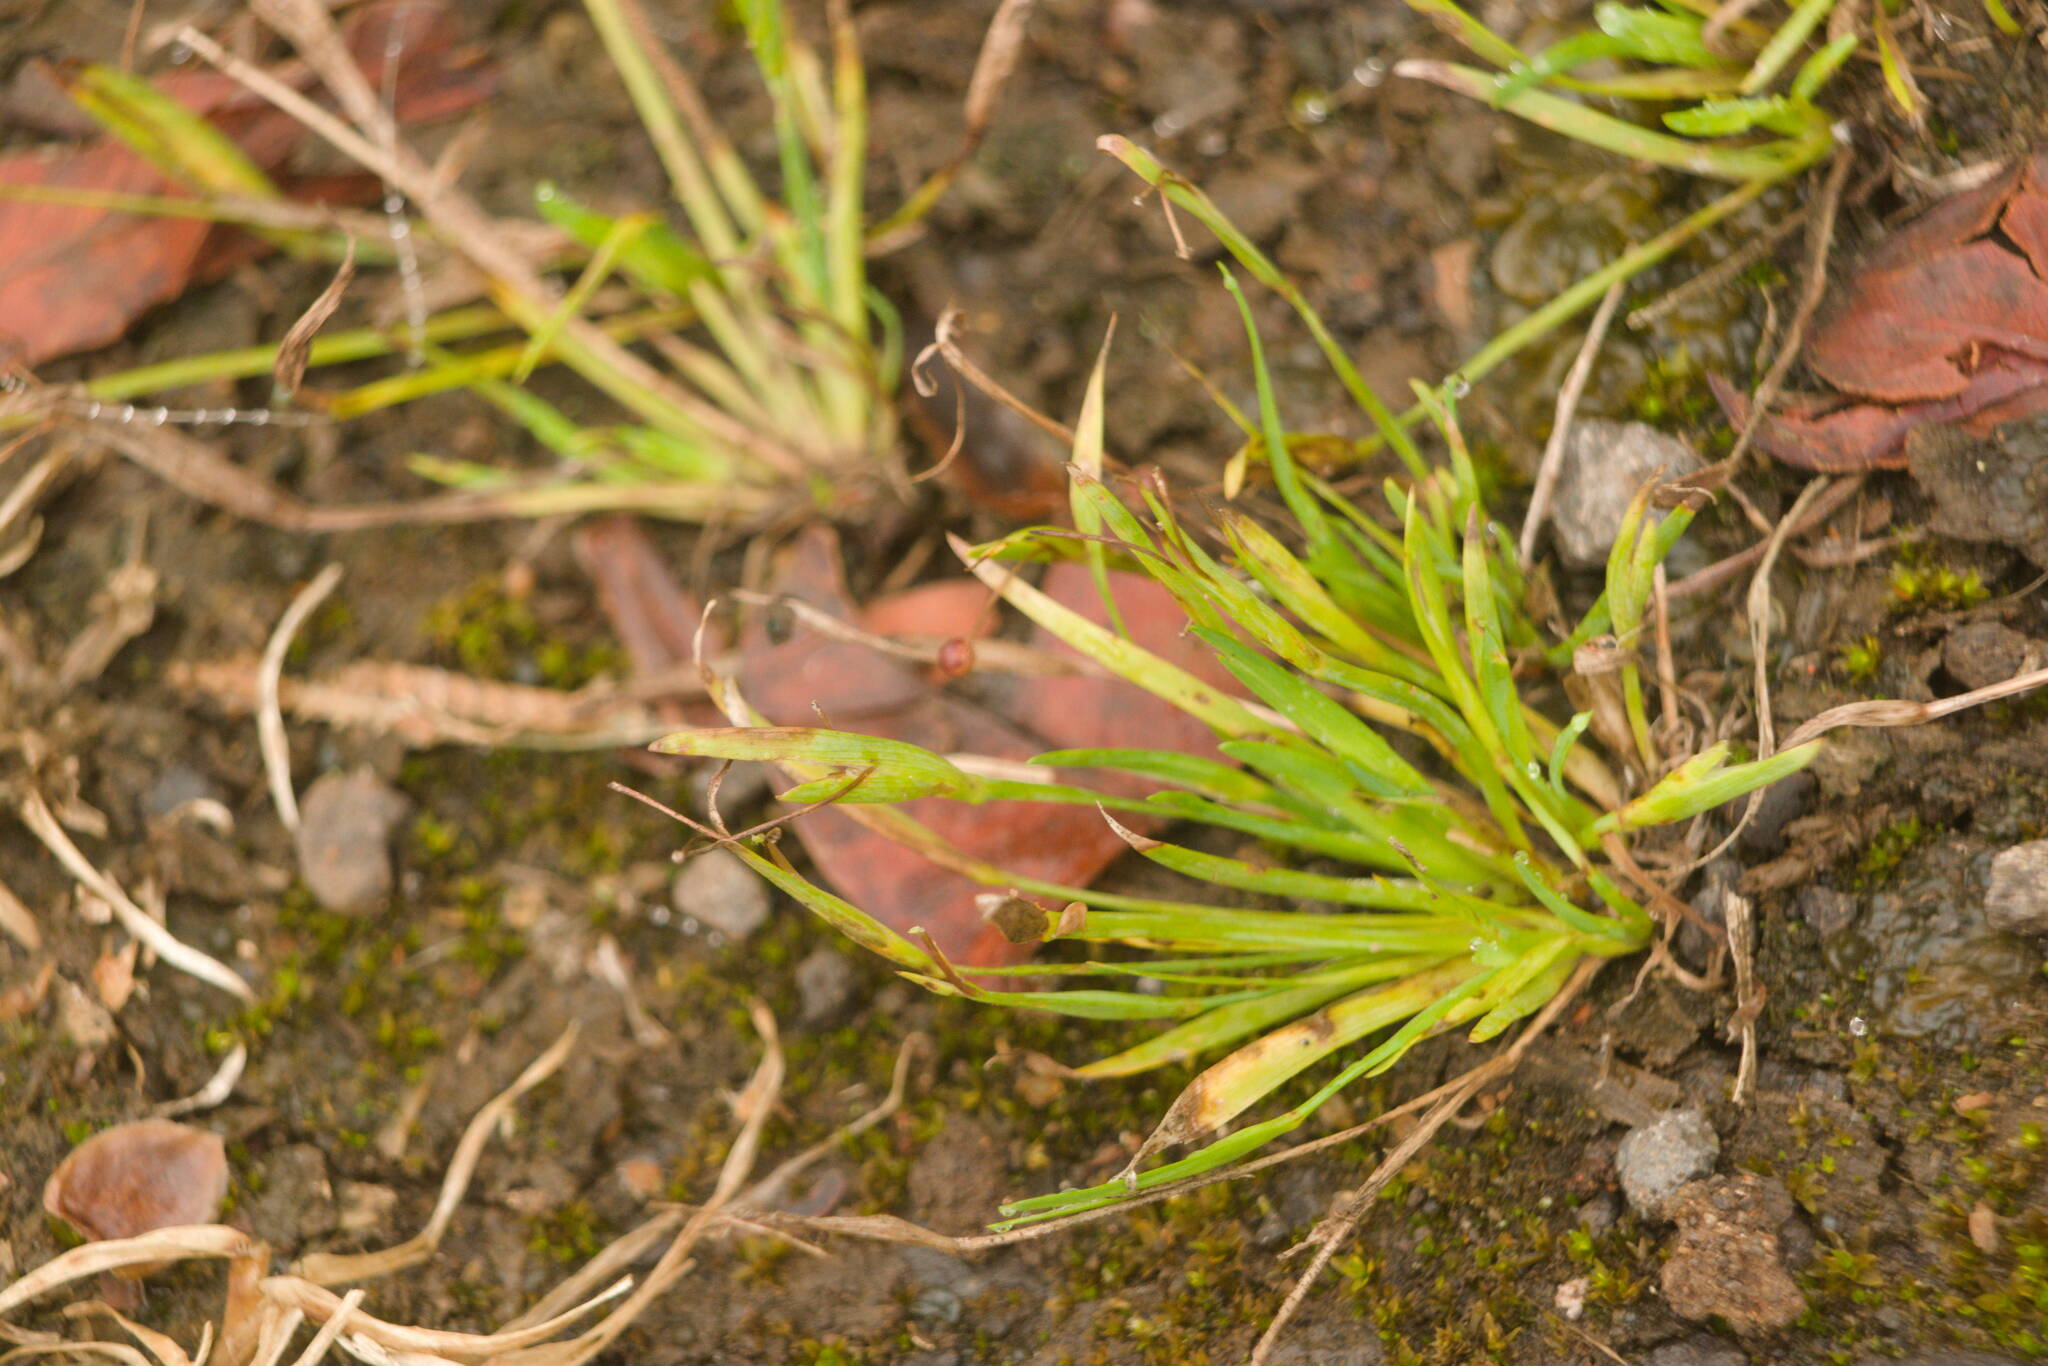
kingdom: Plantae
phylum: Tracheophyta
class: Liliopsida
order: Asparagales
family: Iridaceae
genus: Sisyrinchium
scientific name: Sisyrinchium micranthum
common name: Bermuda pigroot
